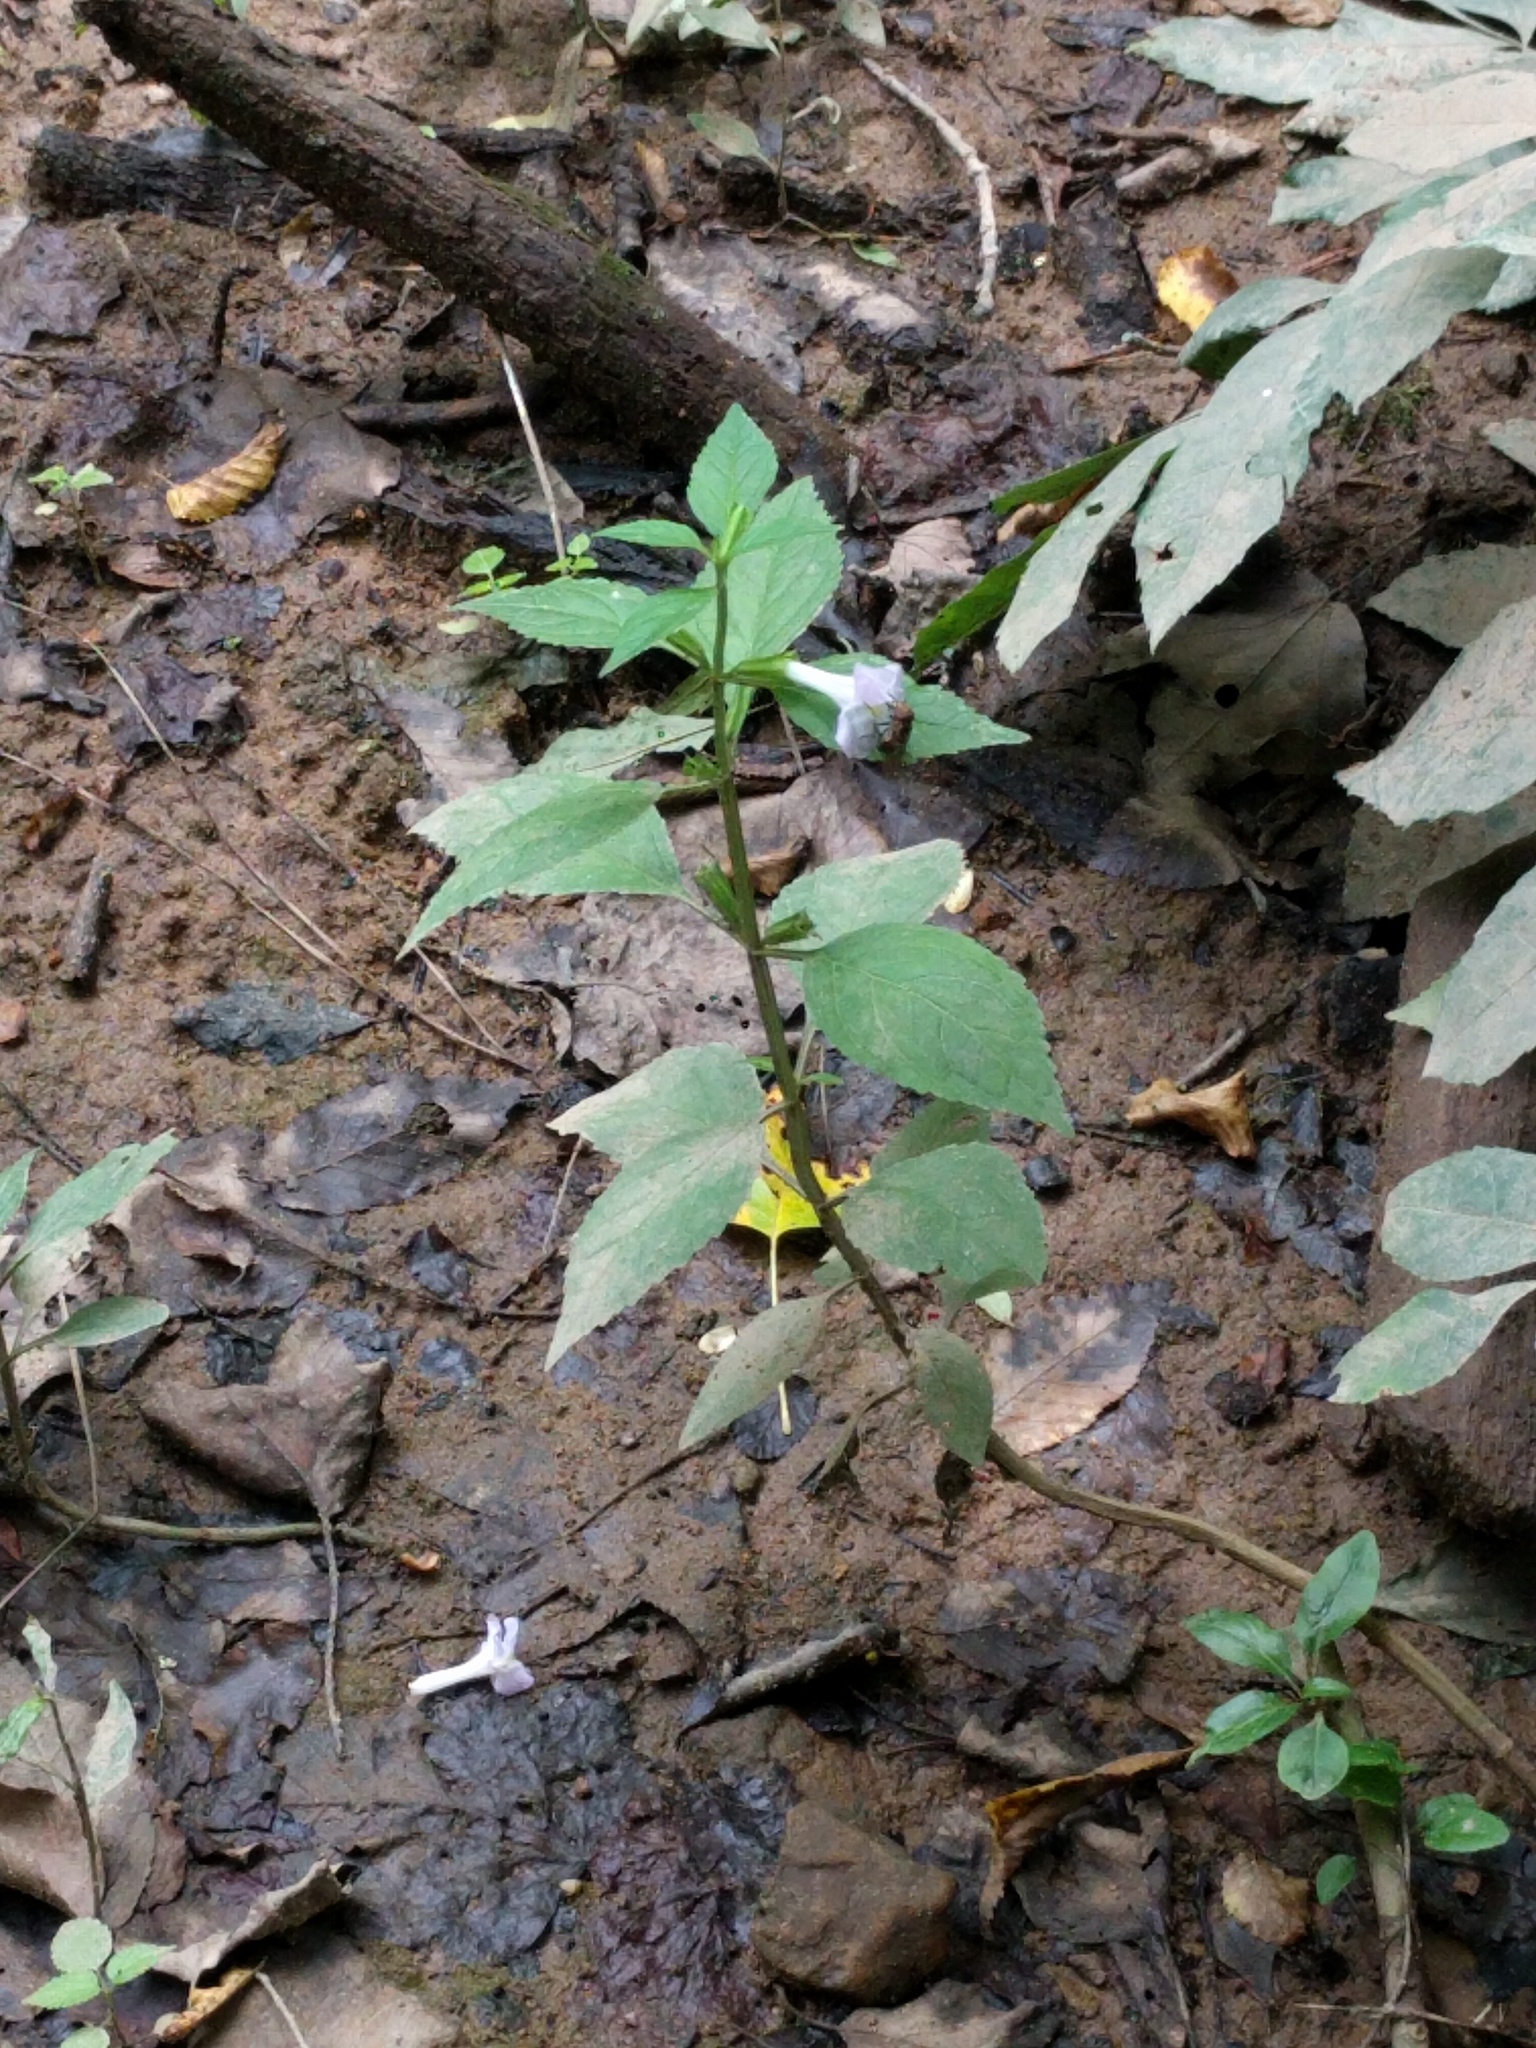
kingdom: Plantae
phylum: Tracheophyta
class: Magnoliopsida
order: Lamiales
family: Phrymaceae
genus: Mimulus
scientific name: Mimulus alatus
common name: Sharp-wing monkey-flower
